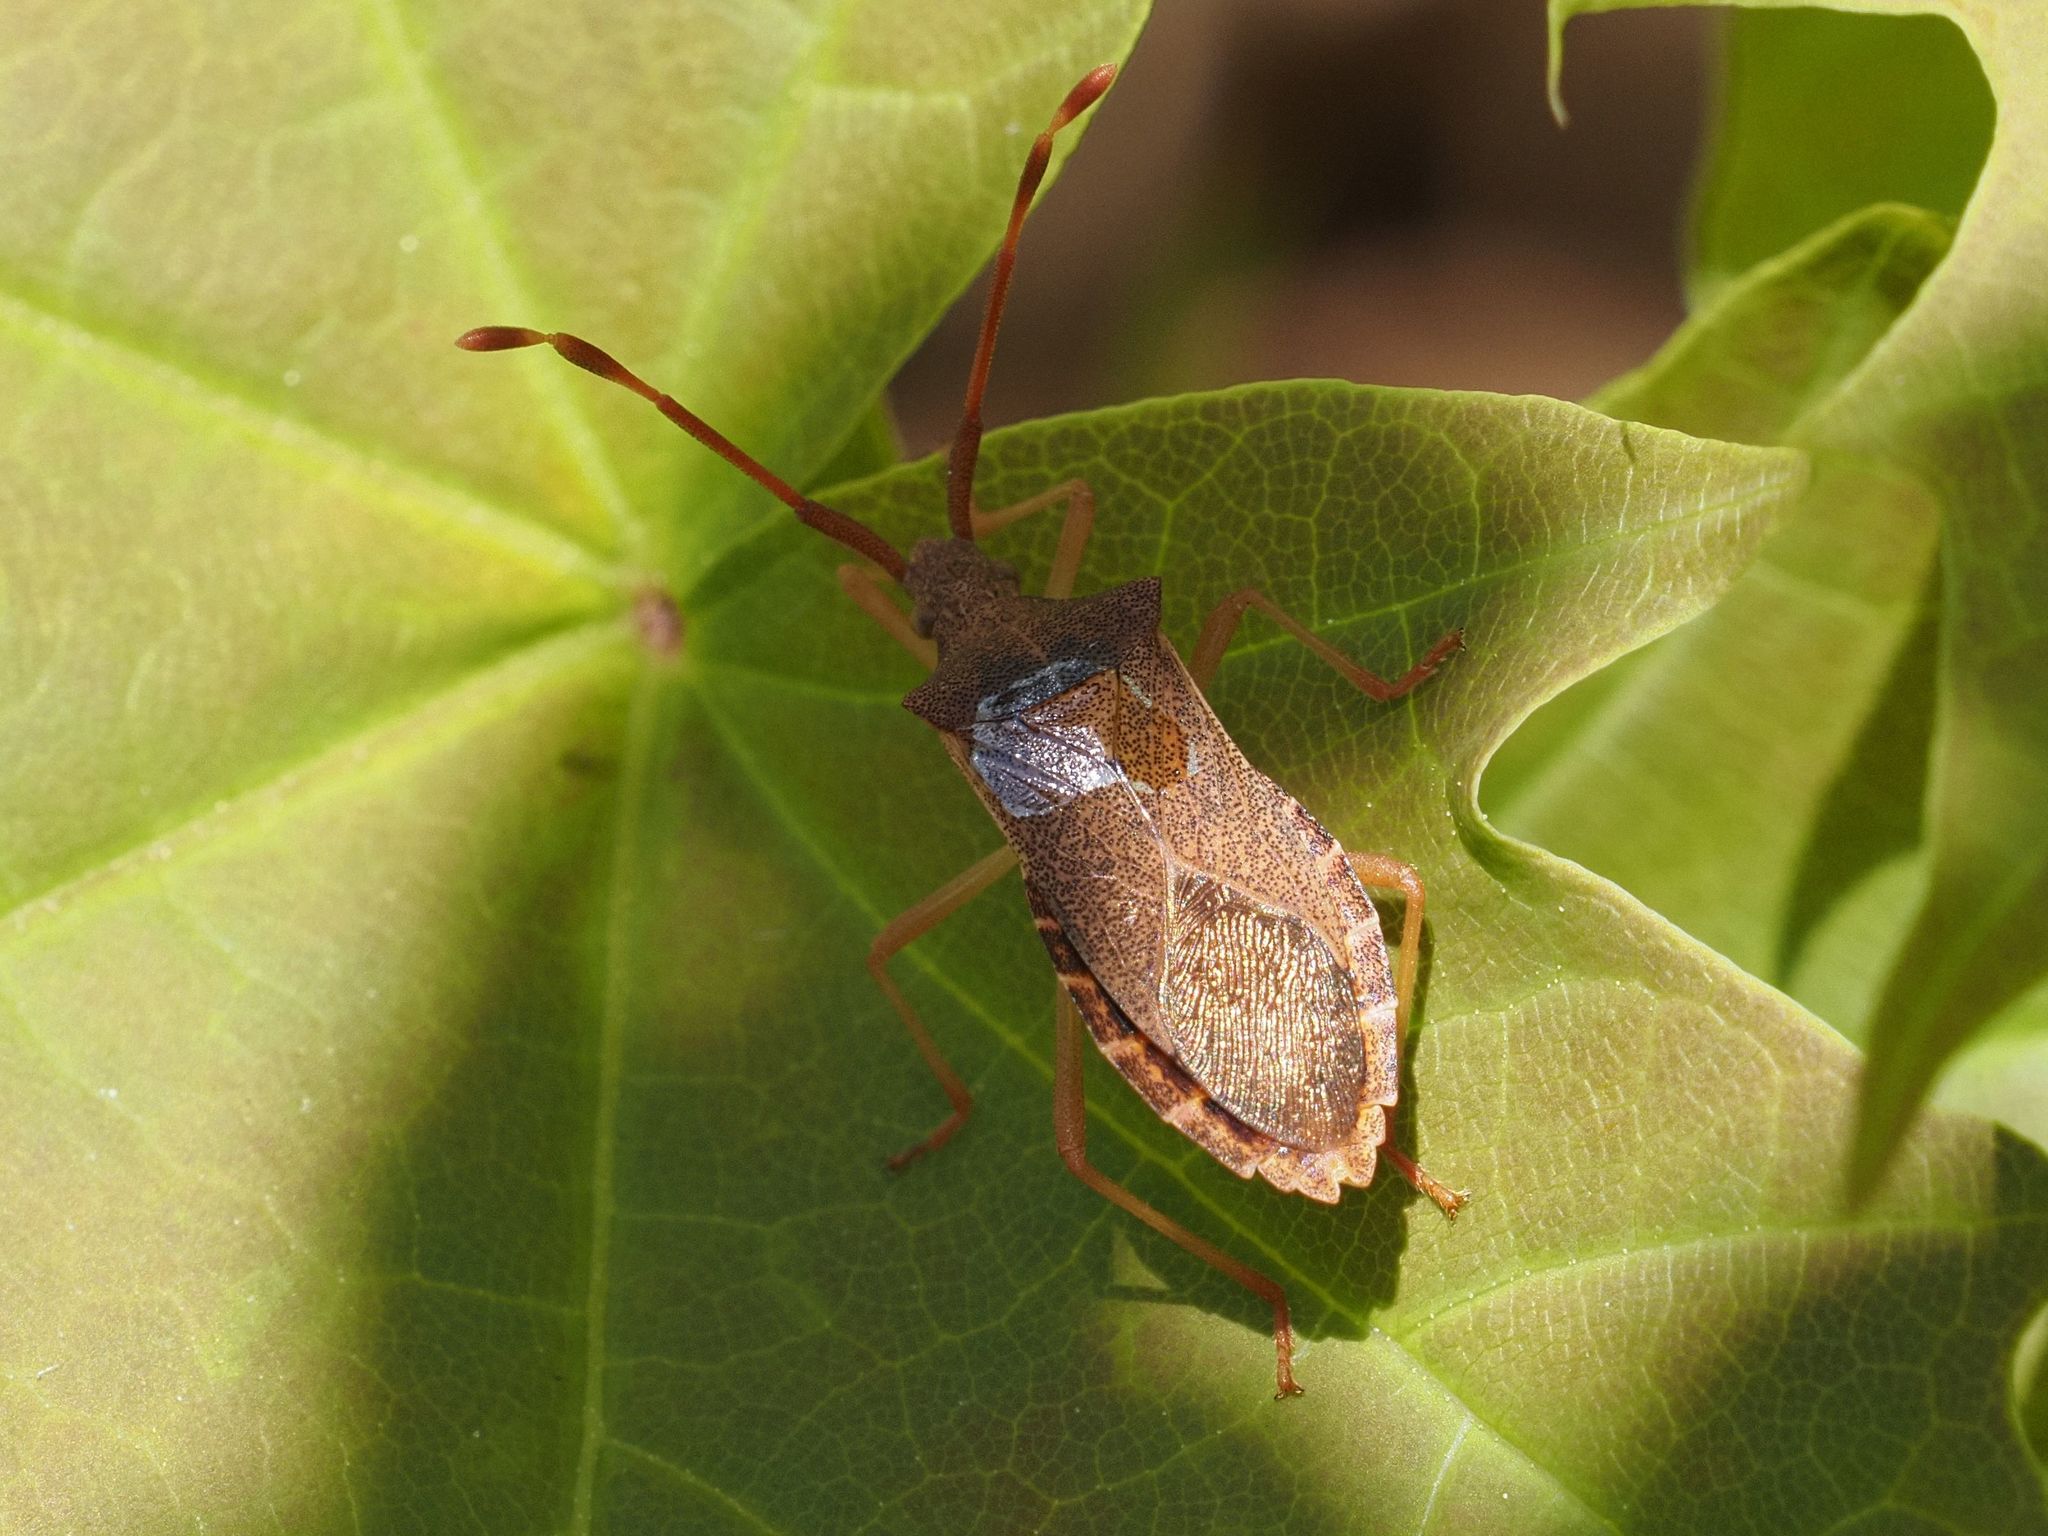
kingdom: Animalia
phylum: Arthropoda
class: Insecta
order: Hemiptera
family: Coreidae
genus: Gonocerus
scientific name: Gonocerus acuteangulatus
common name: Box bug
